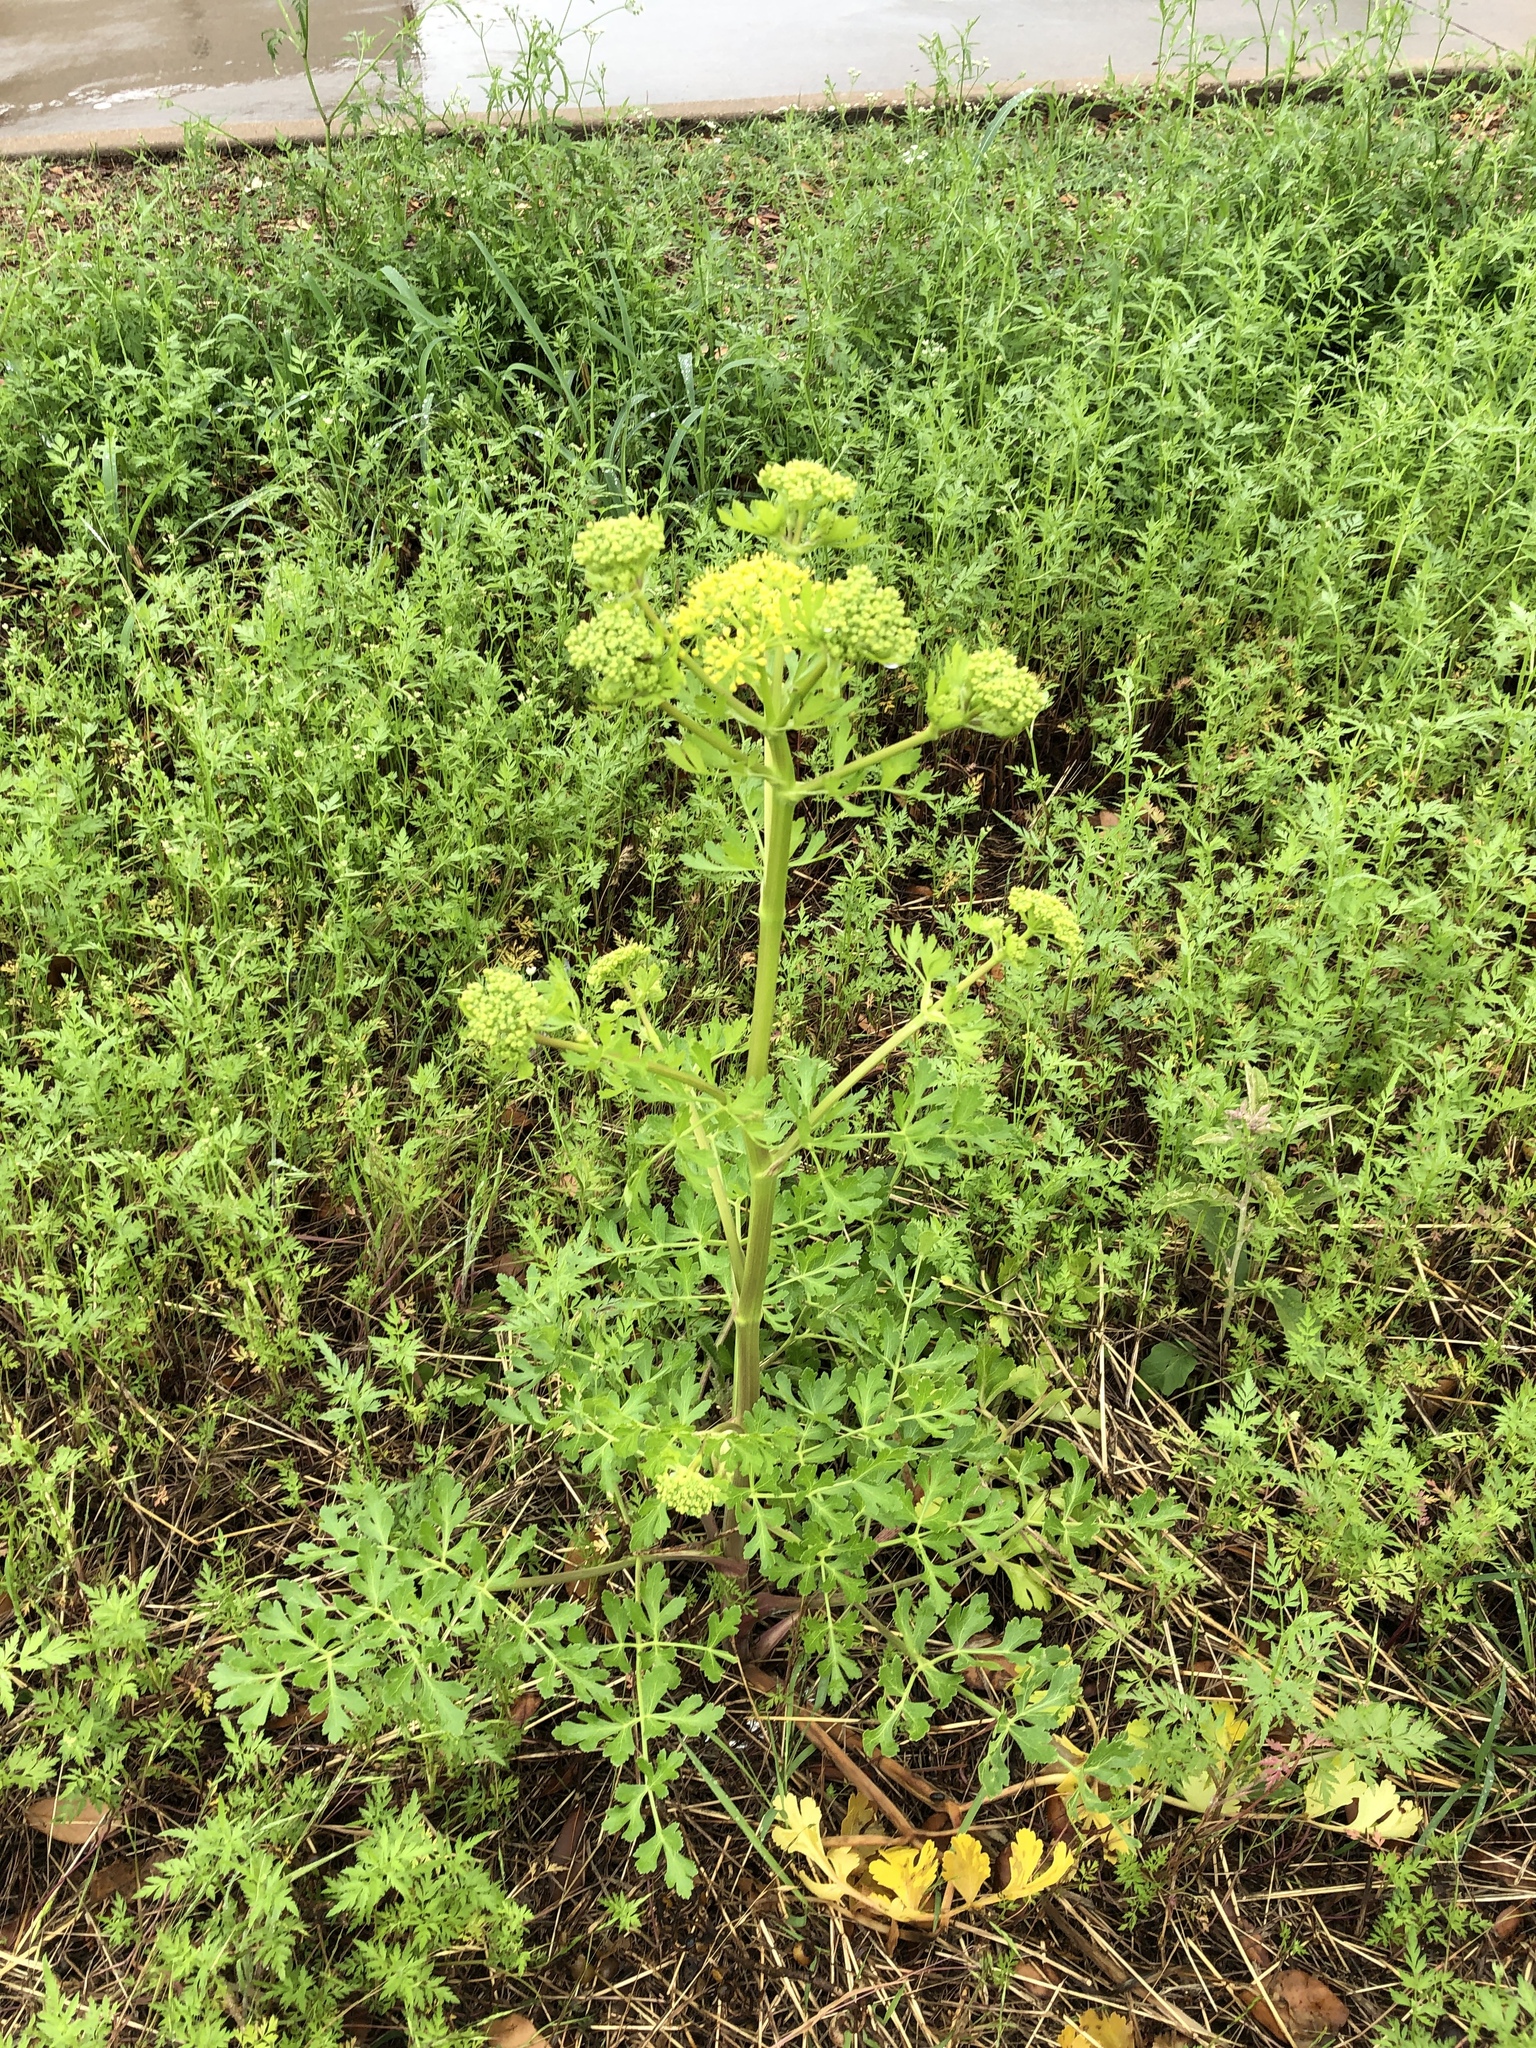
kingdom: Plantae
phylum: Tracheophyta
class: Magnoliopsida
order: Apiales
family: Apiaceae
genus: Polytaenia
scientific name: Polytaenia texana
